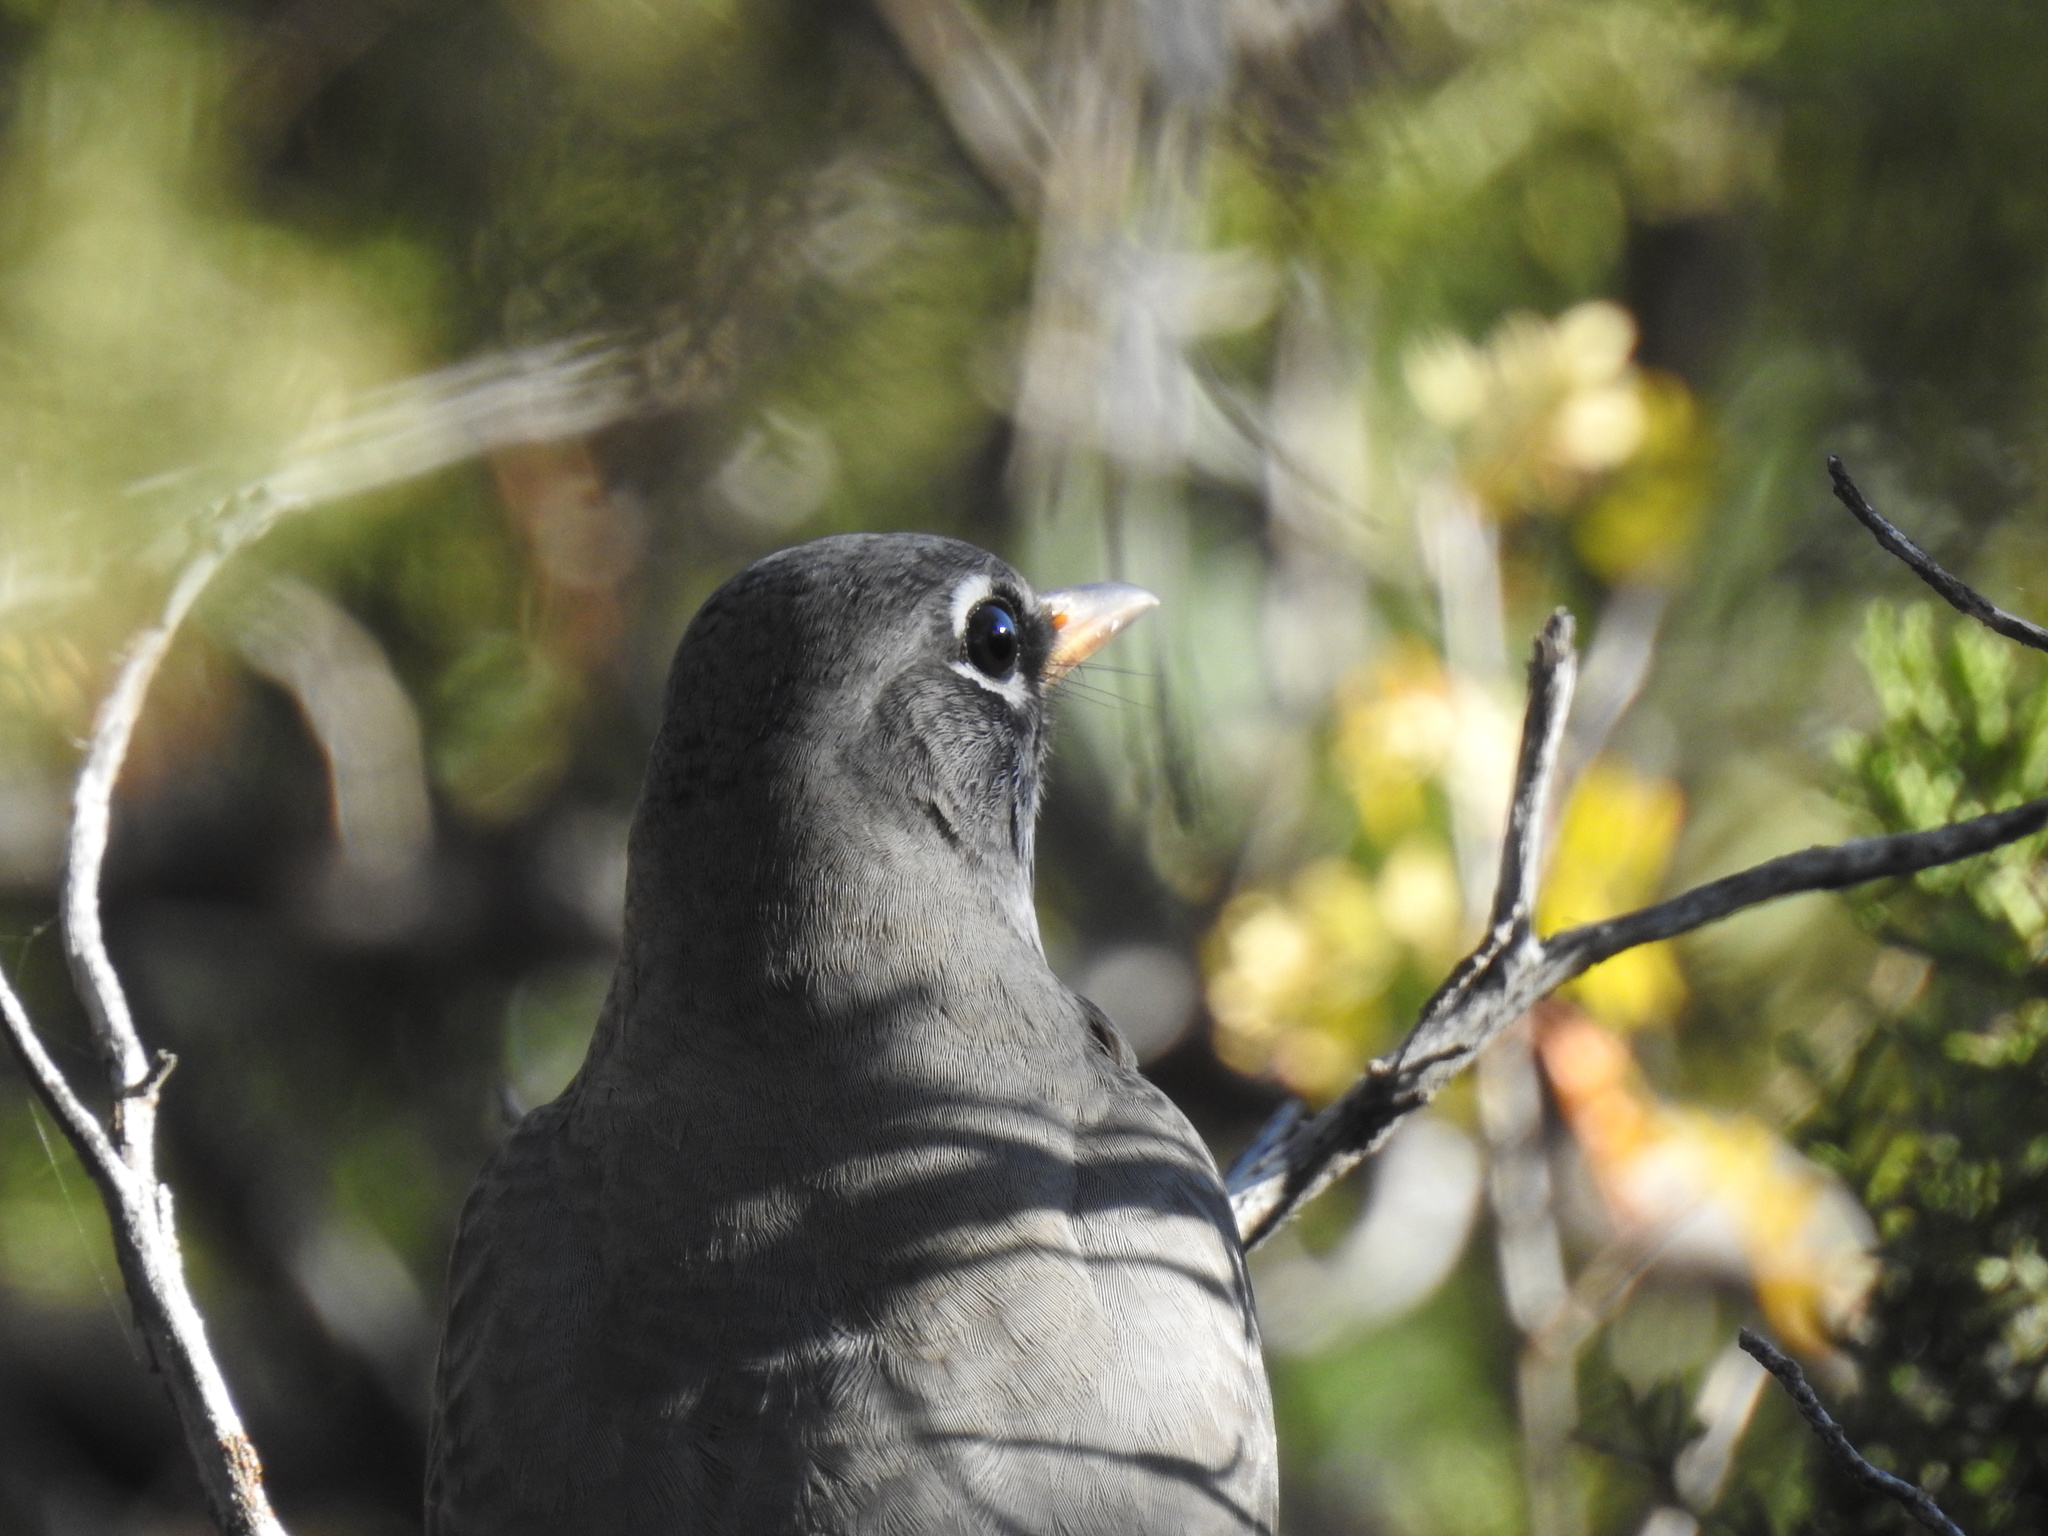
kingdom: Animalia
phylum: Chordata
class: Aves
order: Passeriformes
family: Turdidae
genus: Turdus
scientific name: Turdus migratorius
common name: American robin
